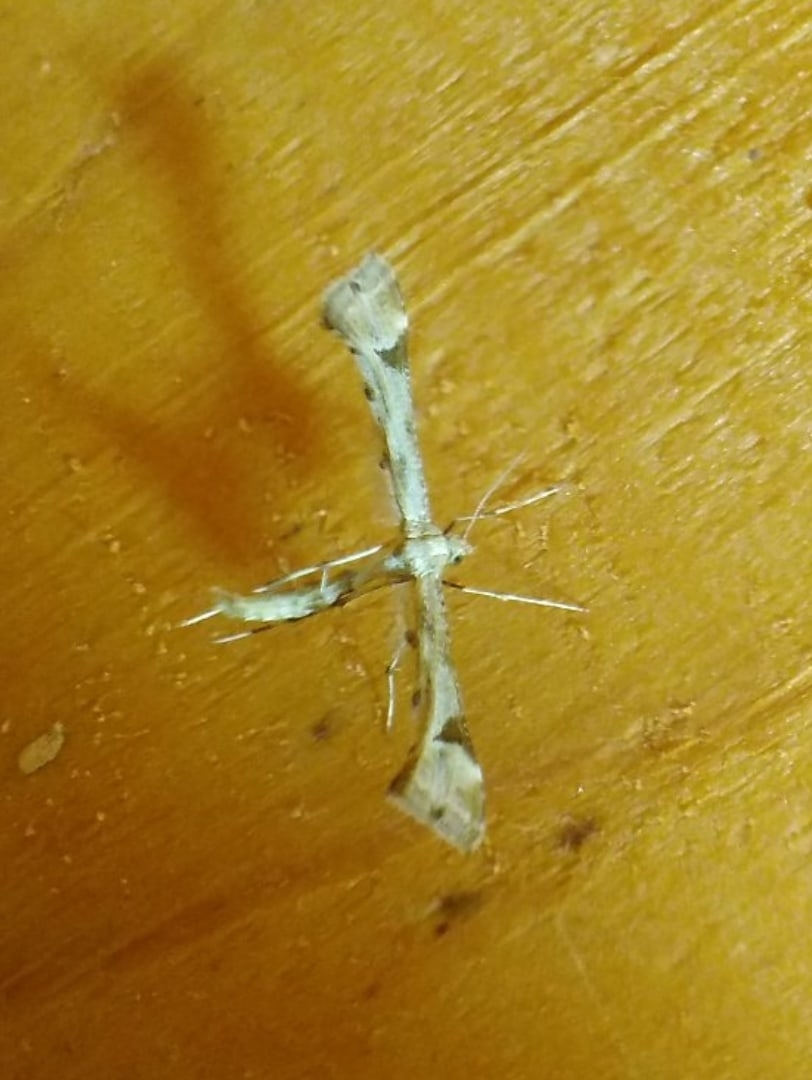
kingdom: Animalia
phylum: Arthropoda
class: Insecta
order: Lepidoptera
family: Pterophoridae
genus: Platyptilia
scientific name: Platyptilia gonodactyla
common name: Triangle plume
